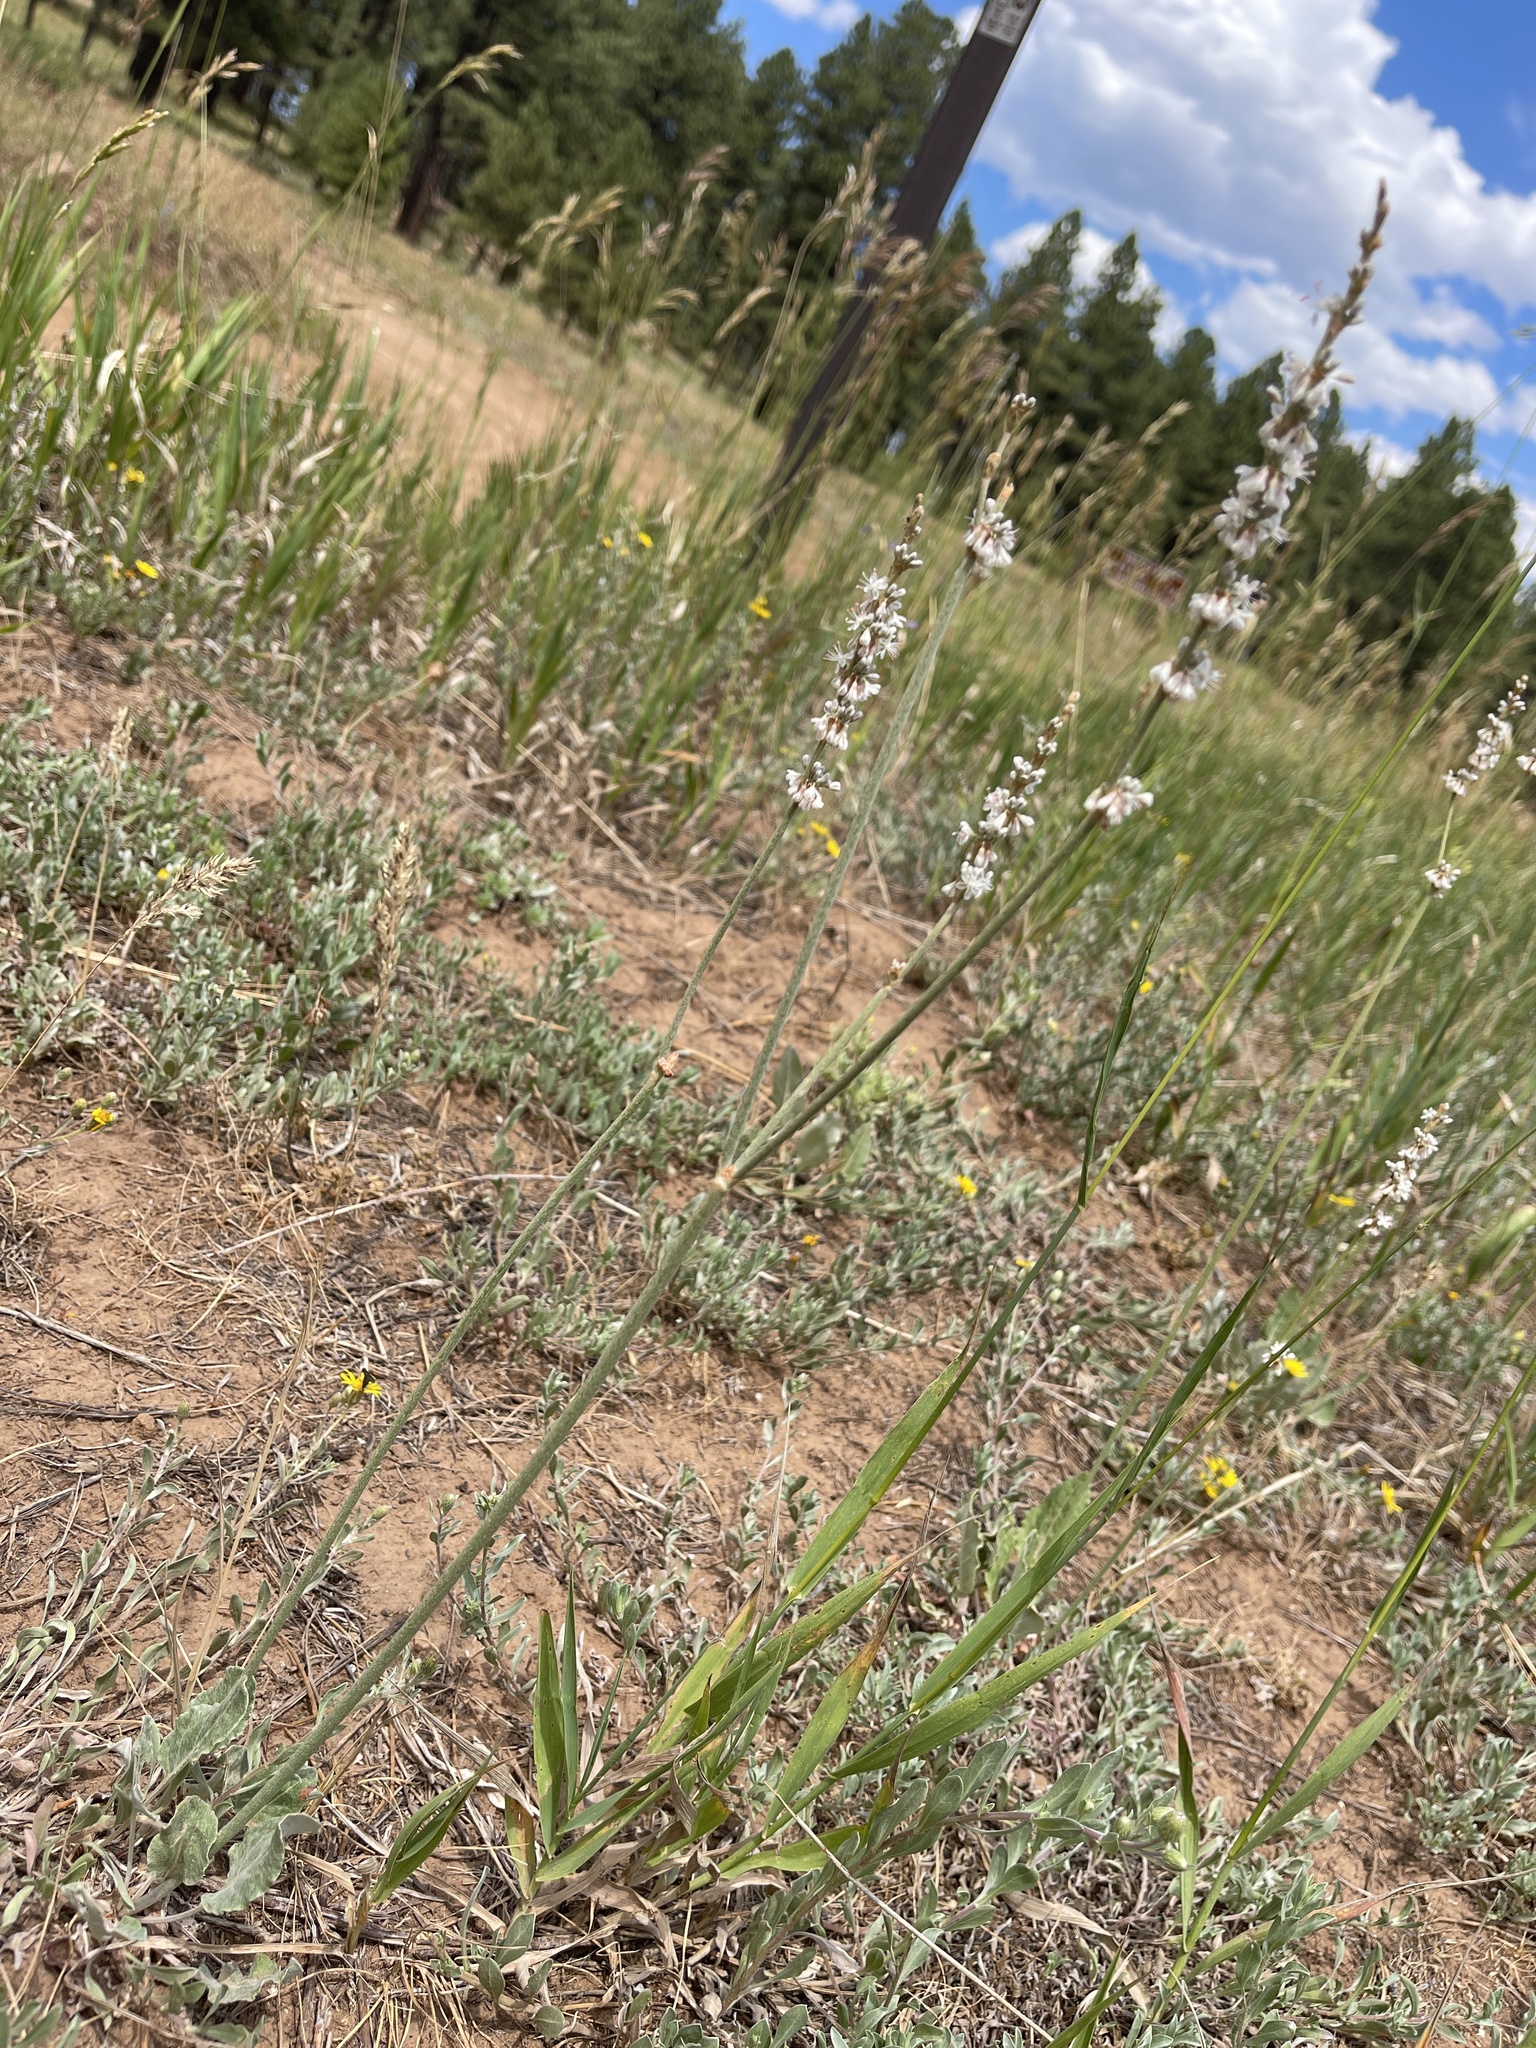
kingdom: Plantae
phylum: Tracheophyta
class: Magnoliopsida
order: Caryophyllales
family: Polygonaceae
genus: Eriogonum
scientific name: Eriogonum racemosum
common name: Redroot wild buckwheat
